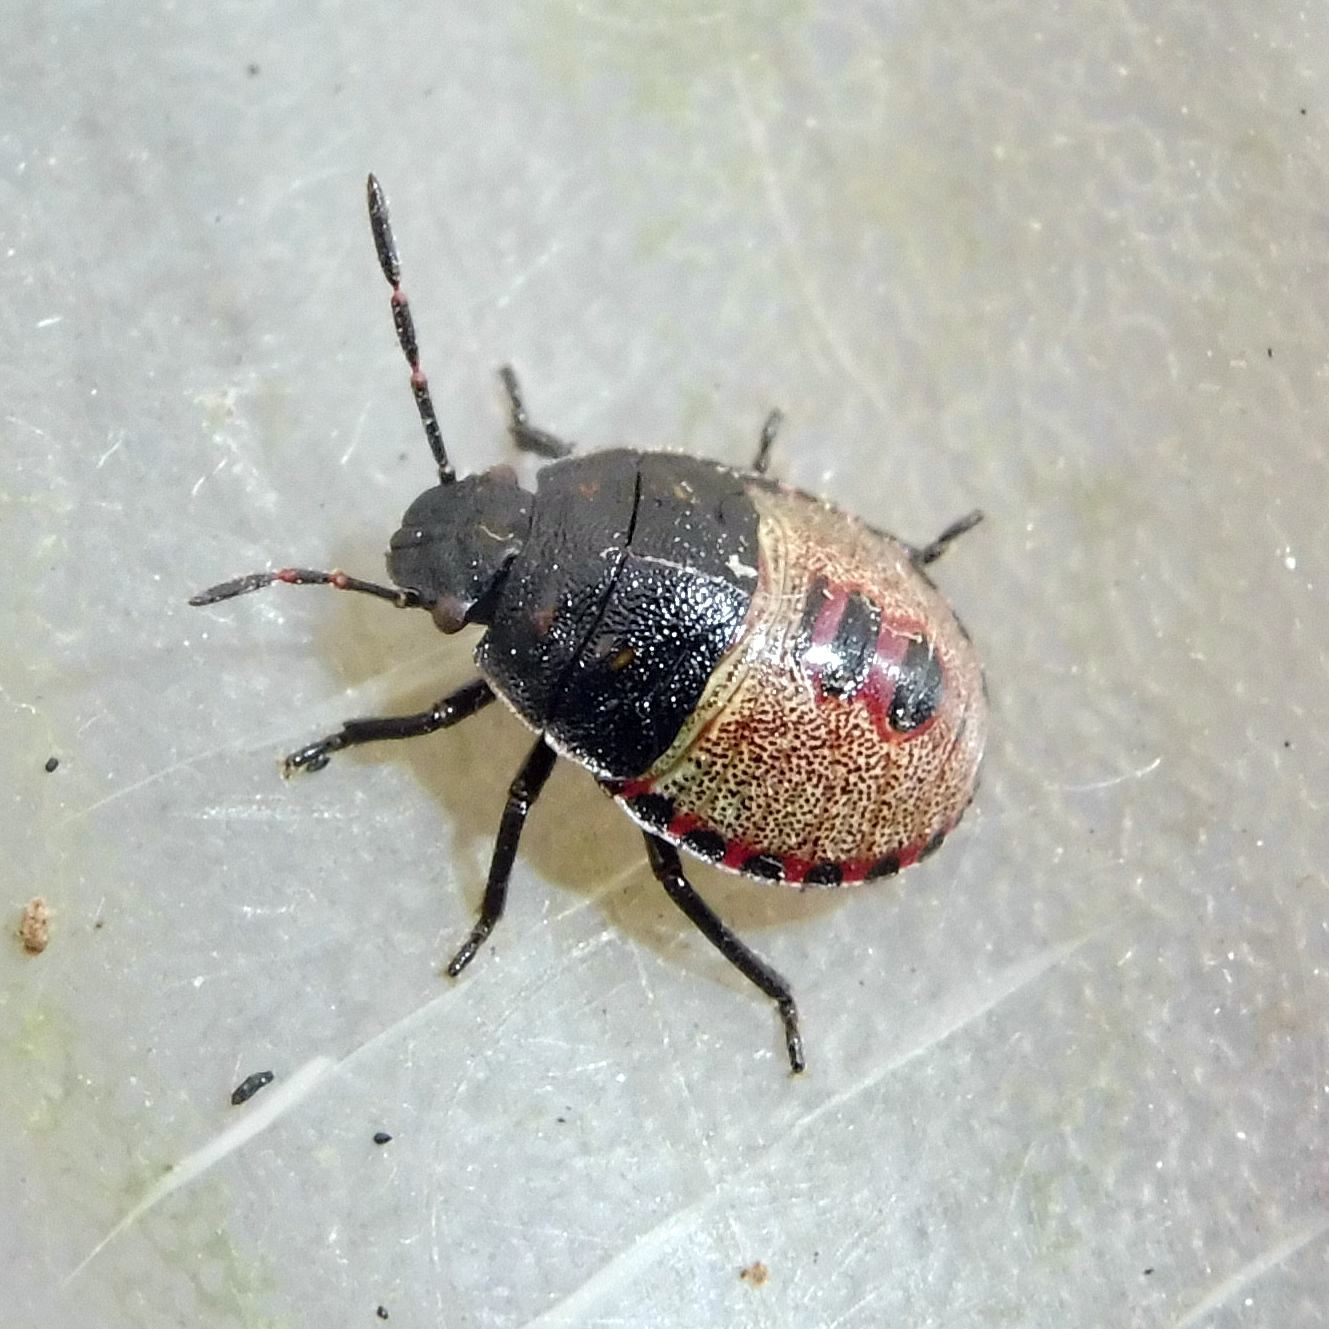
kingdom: Animalia
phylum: Arthropoda
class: Insecta
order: Hemiptera
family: Pentatomidae
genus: Piezodorus
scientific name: Piezodorus lituratus
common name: Stink bug
